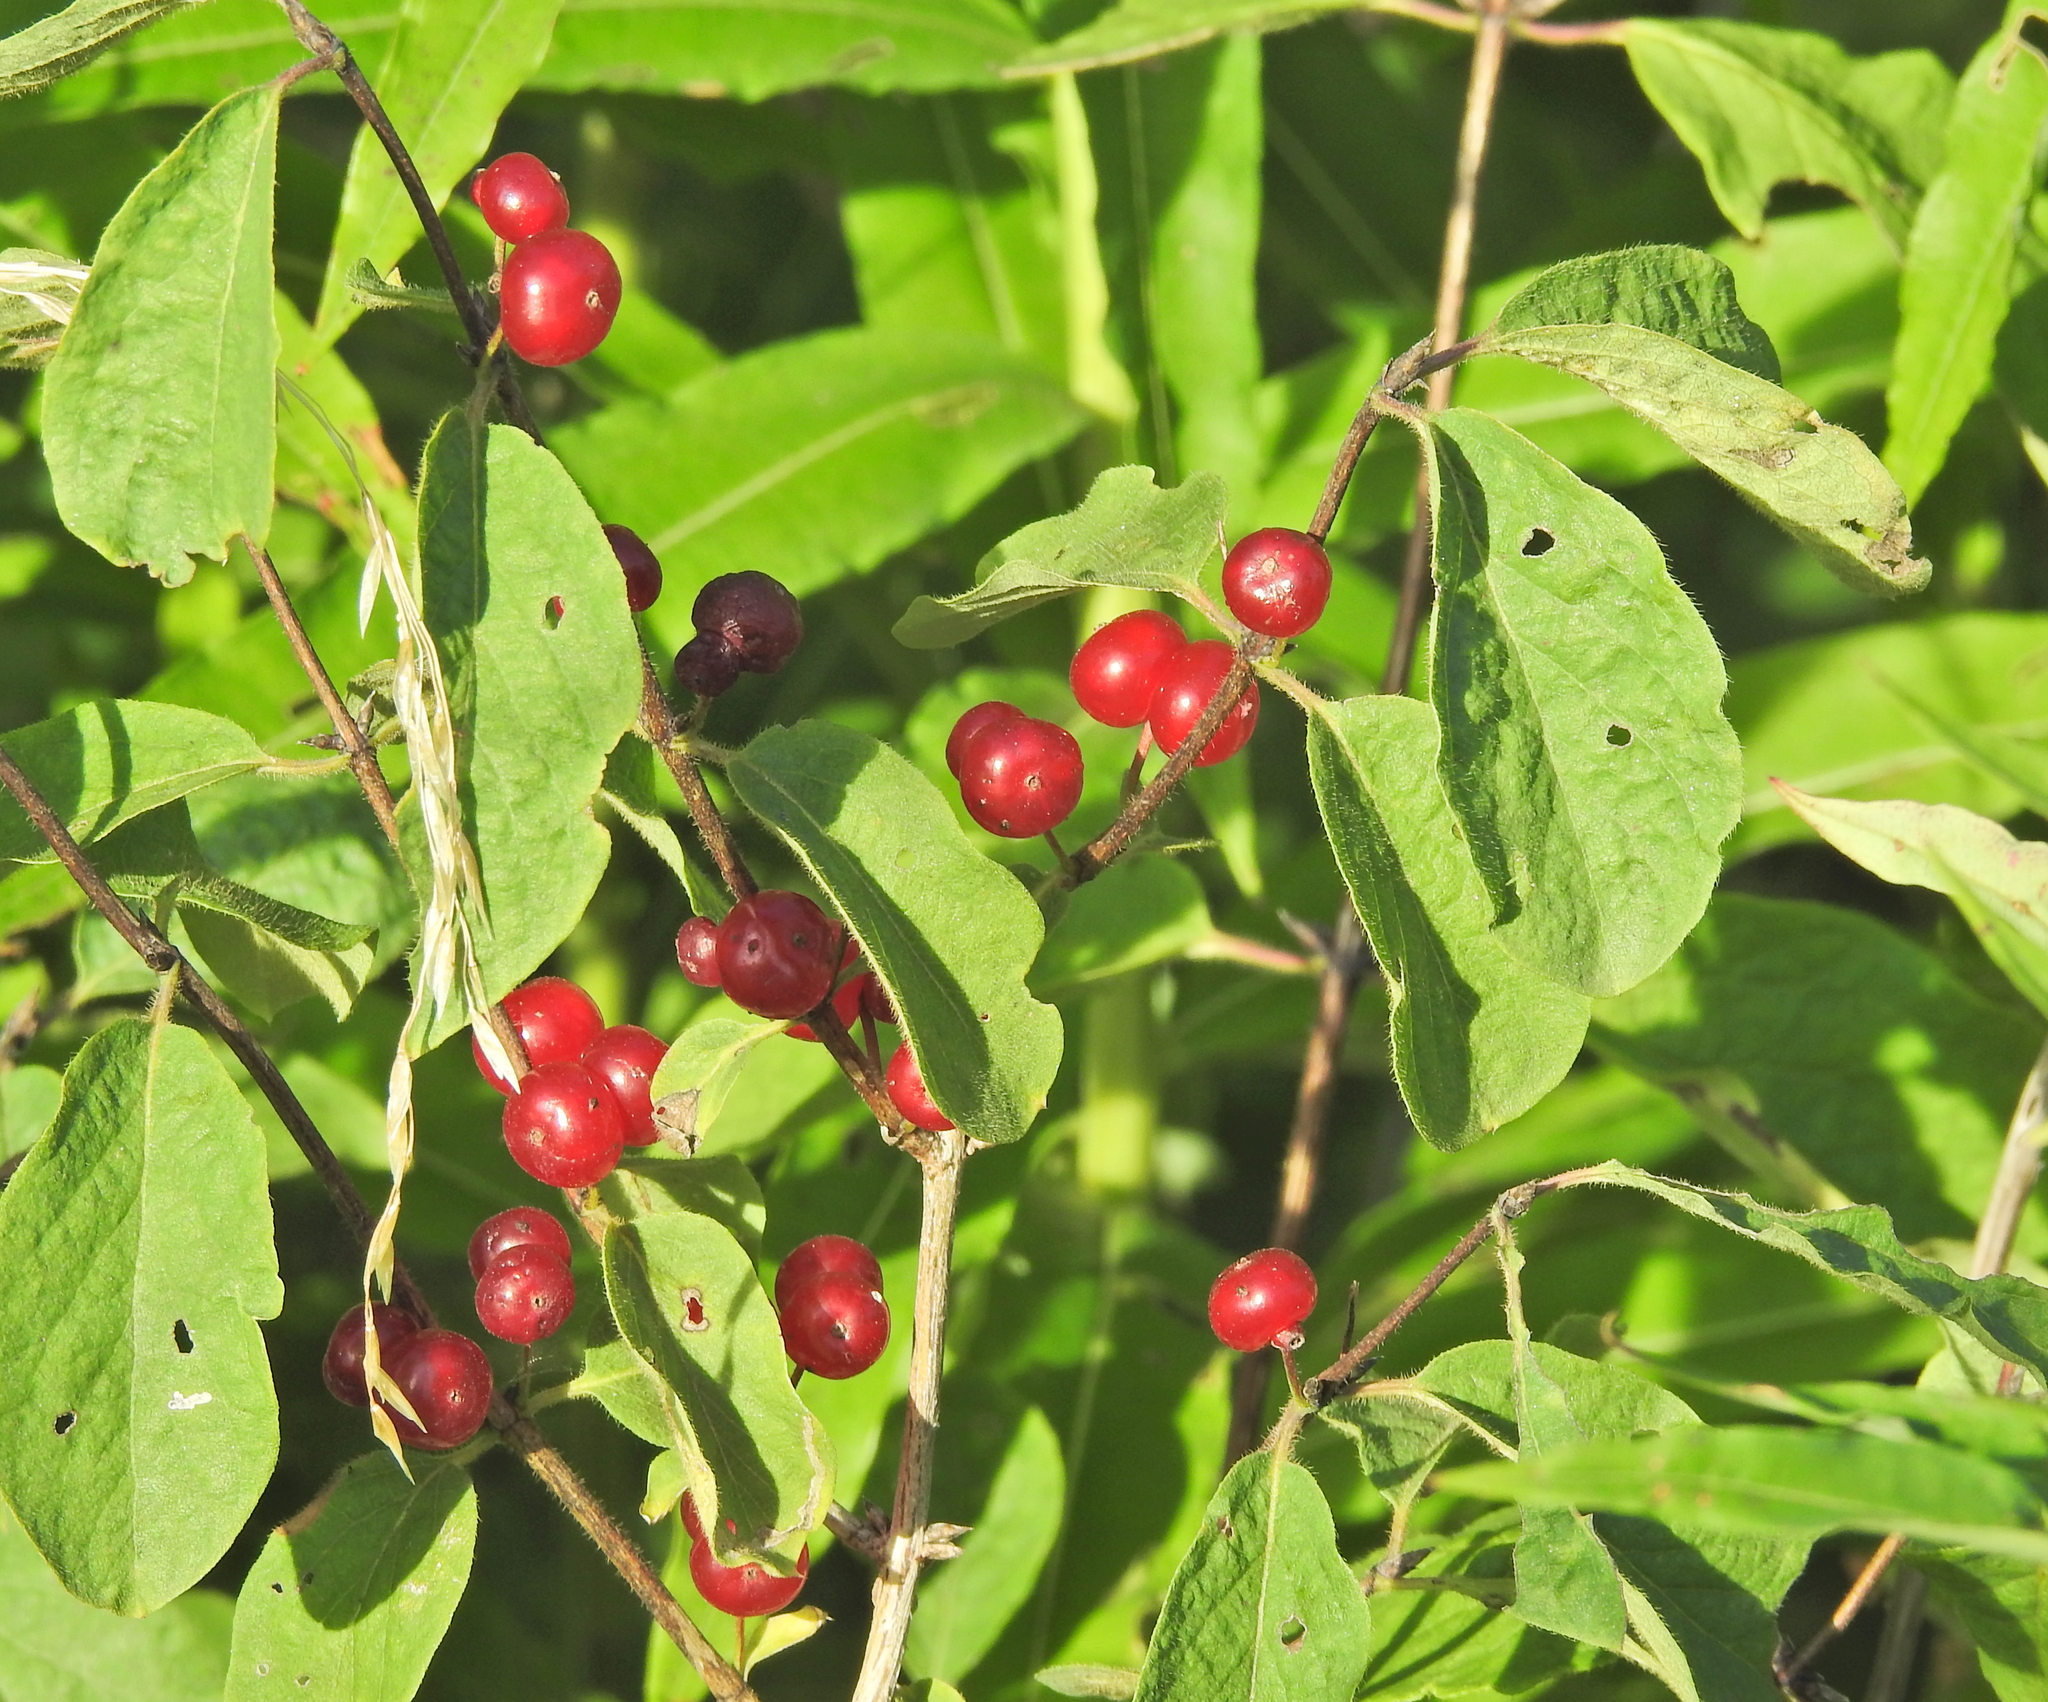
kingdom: Plantae
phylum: Tracheophyta
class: Magnoliopsida
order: Dipsacales
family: Caprifoliaceae
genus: Lonicera
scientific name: Lonicera xylosteum
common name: Fly honeysuckle
